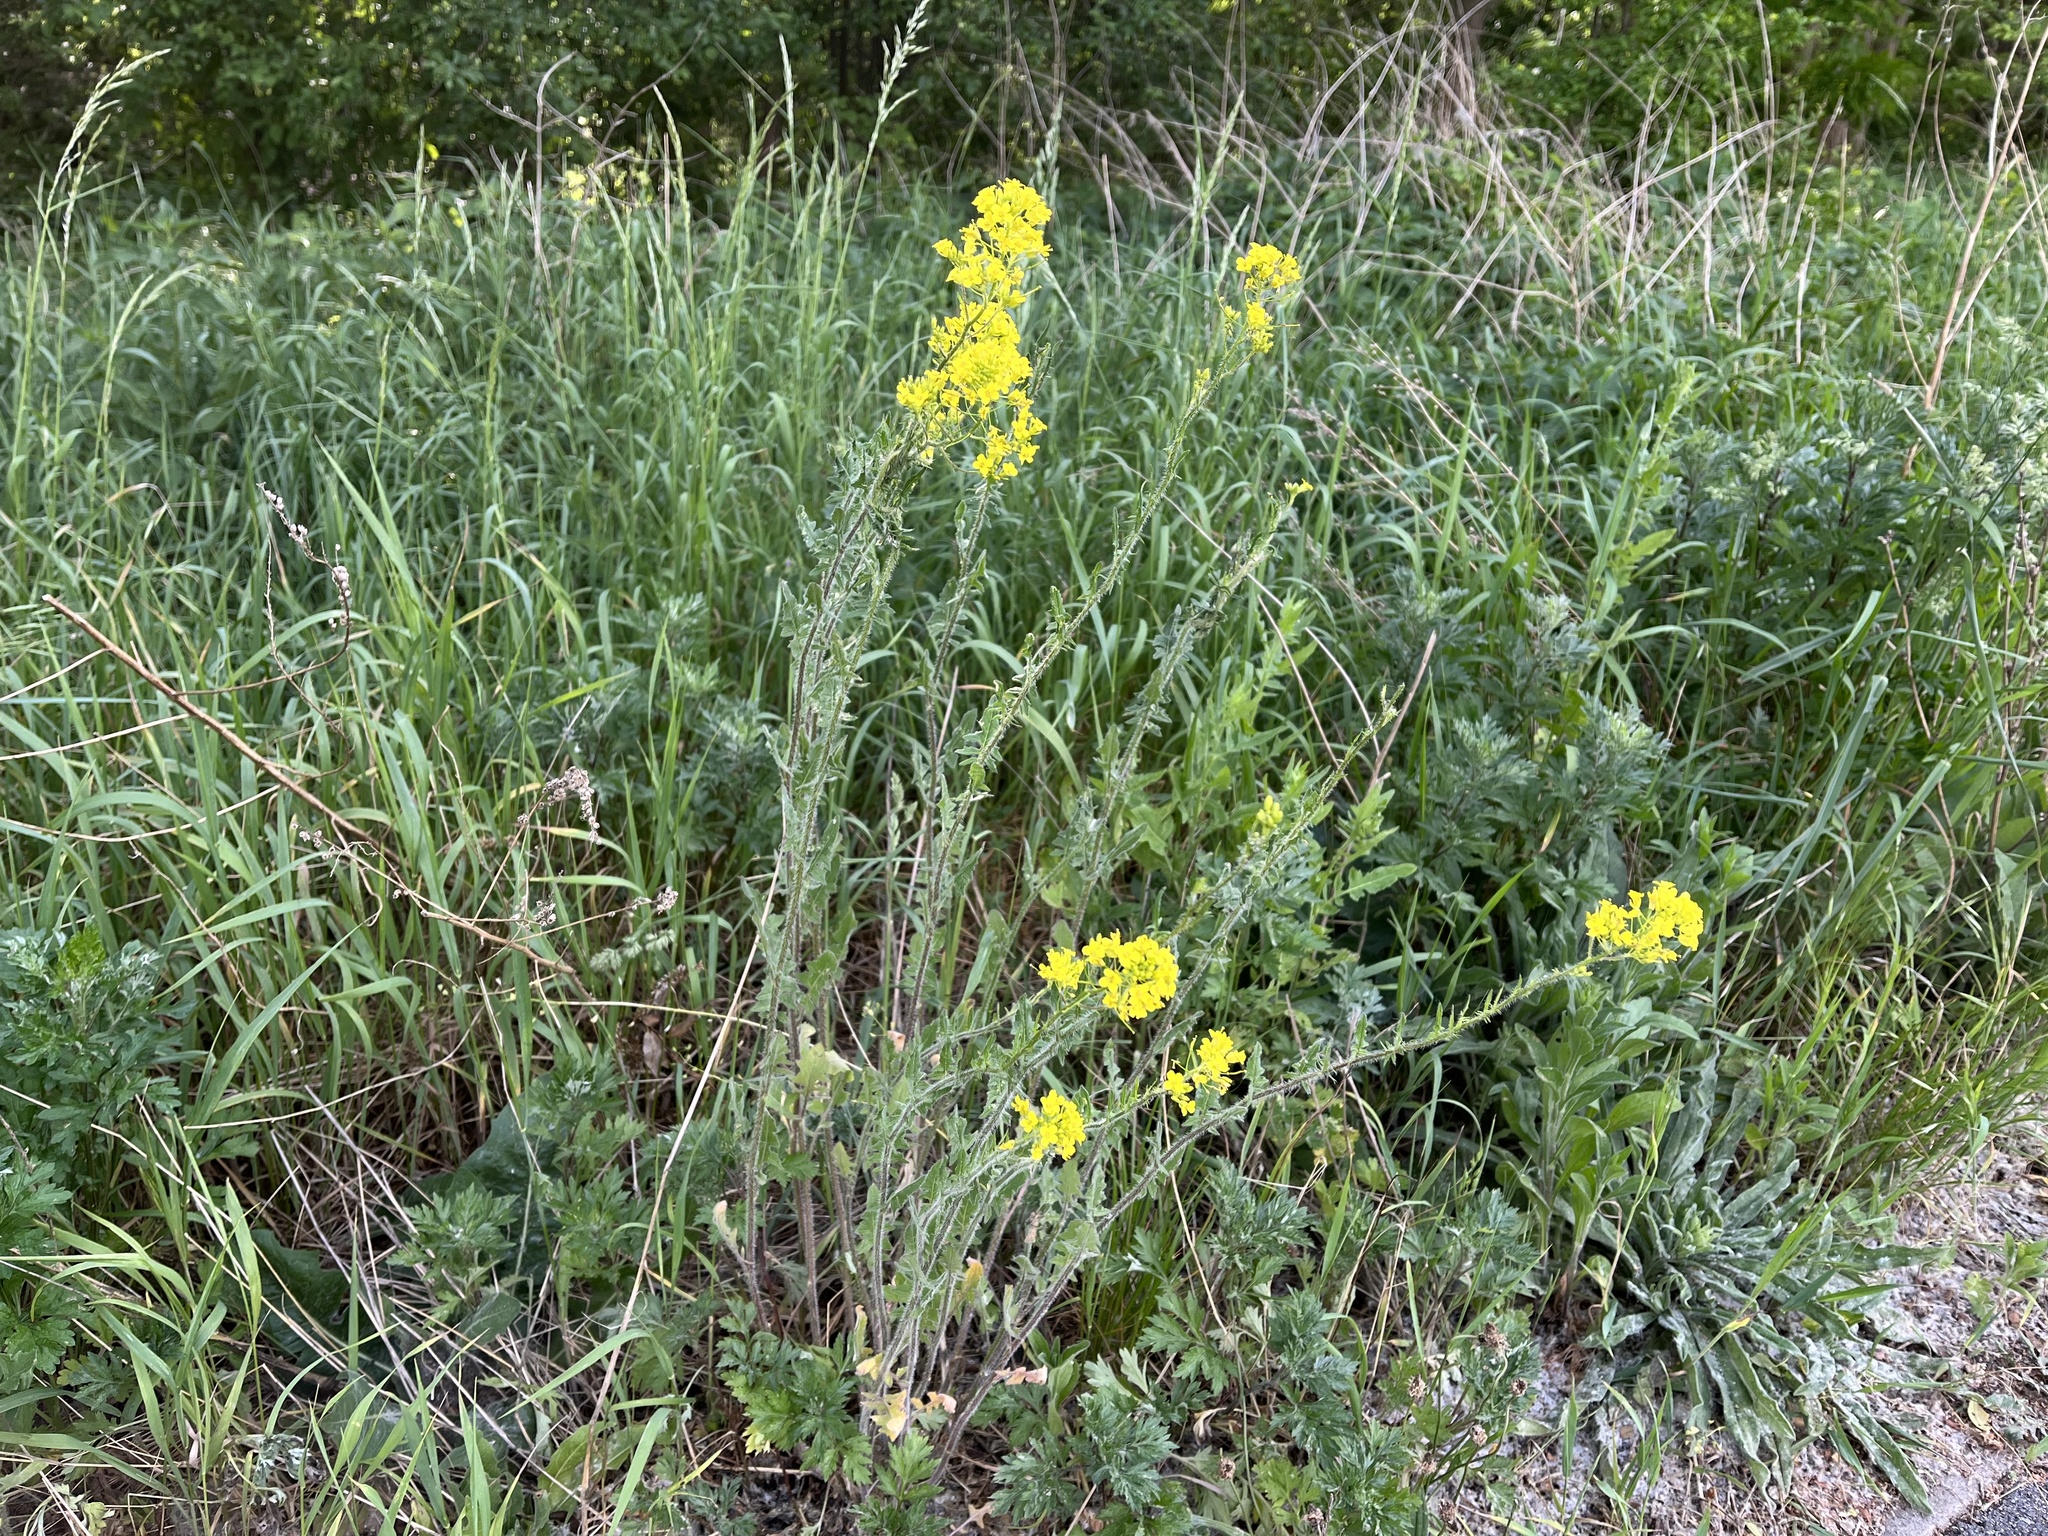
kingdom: Plantae
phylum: Tracheophyta
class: Magnoliopsida
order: Brassicales
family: Brassicaceae
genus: Sisymbrium
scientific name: Sisymbrium loeselii
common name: False london-rocket
